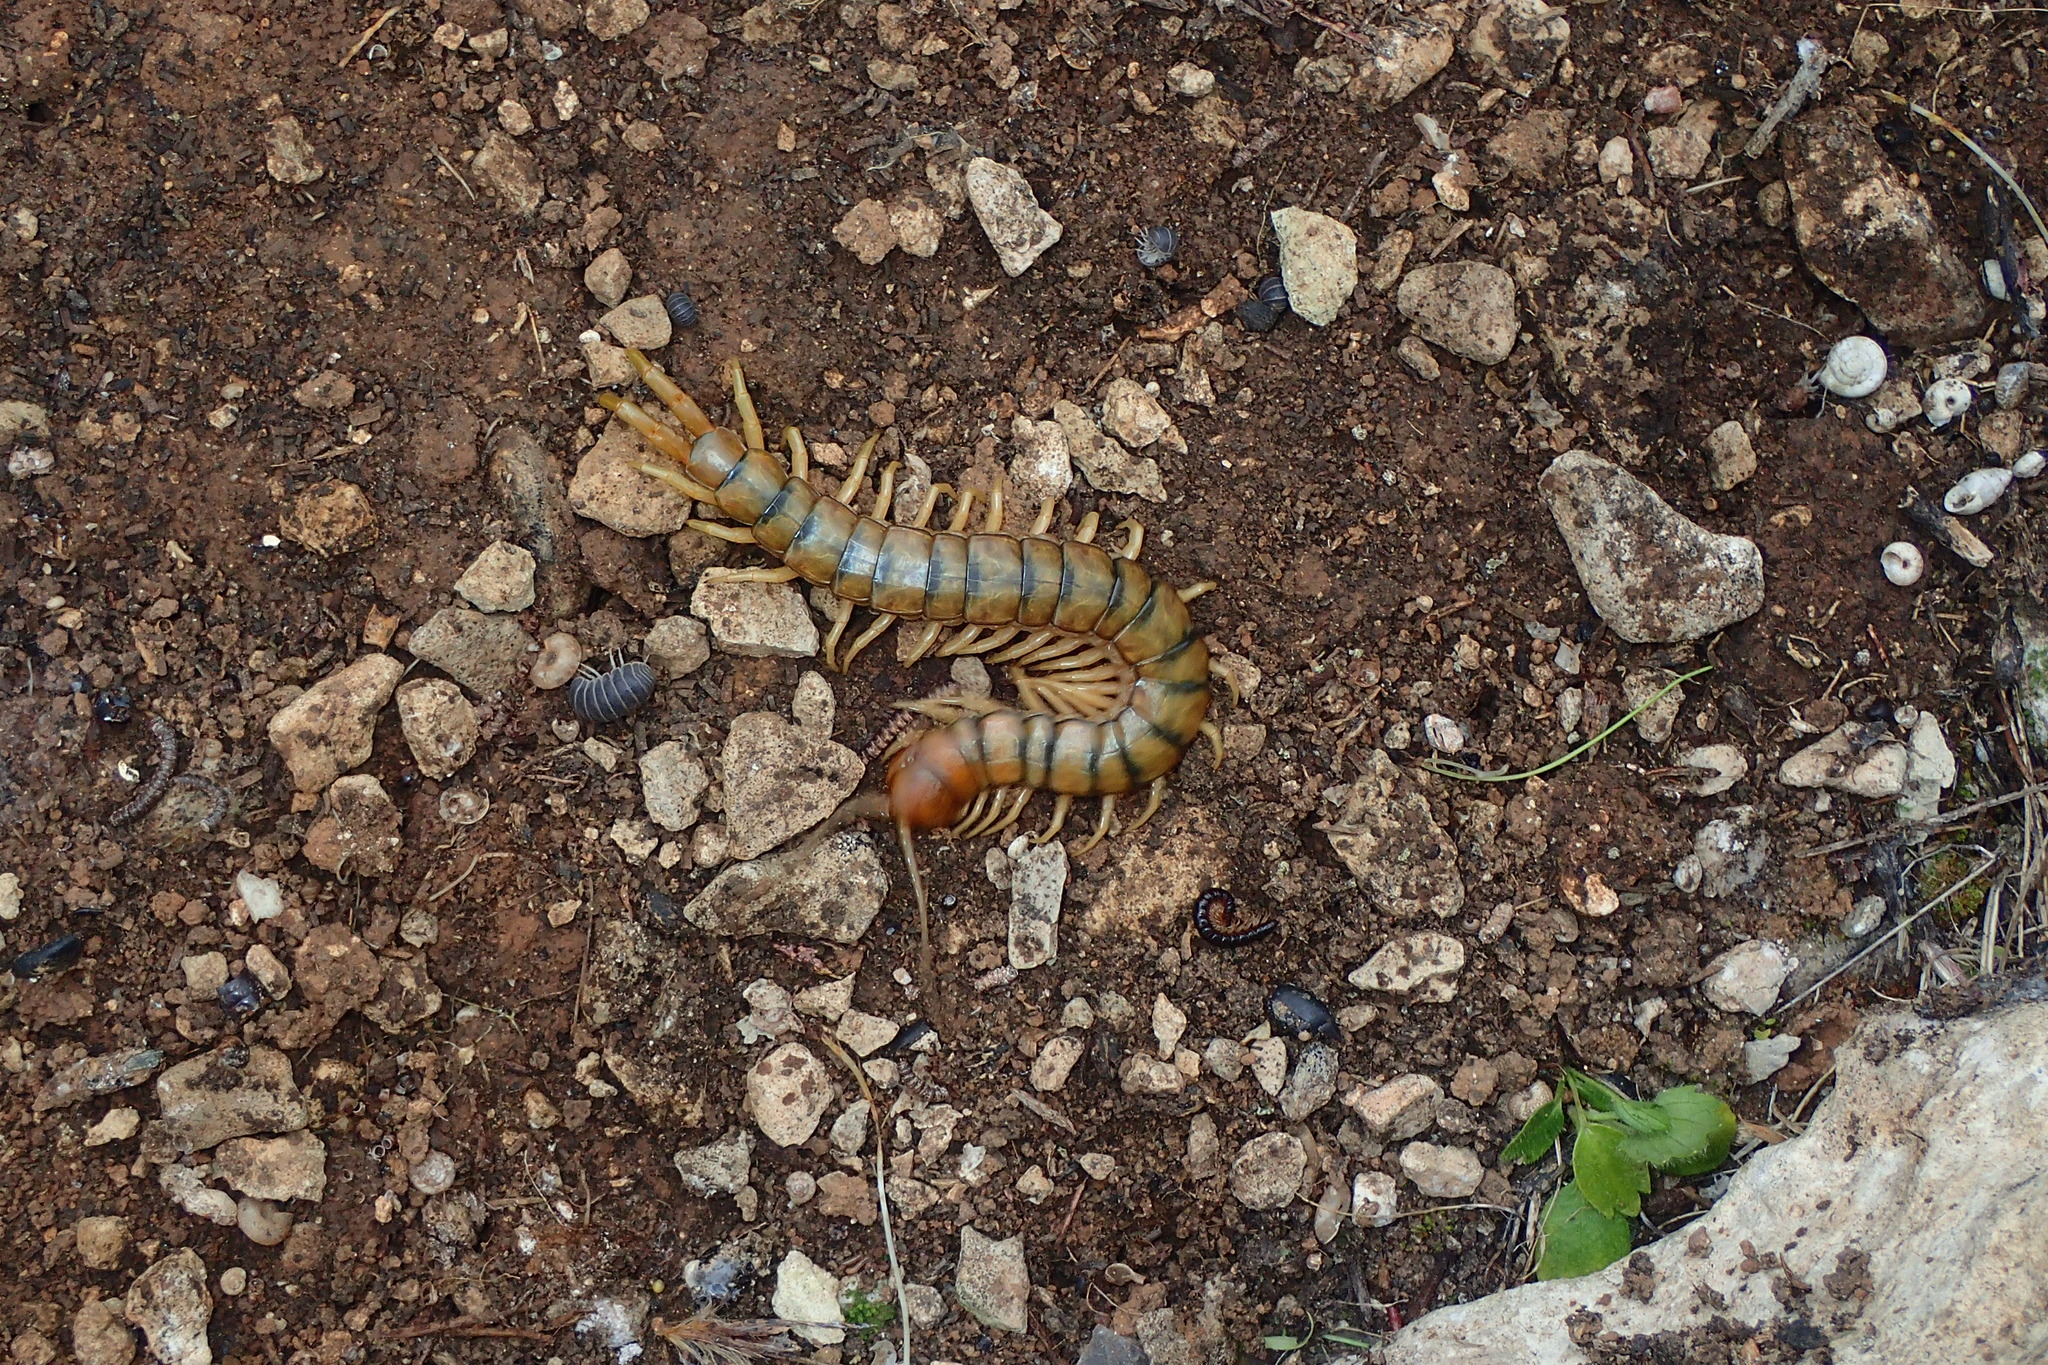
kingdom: Animalia
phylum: Arthropoda
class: Chilopoda
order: Scolopendromorpha
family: Scolopendridae
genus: Scolopendra
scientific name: Scolopendra cingulata
